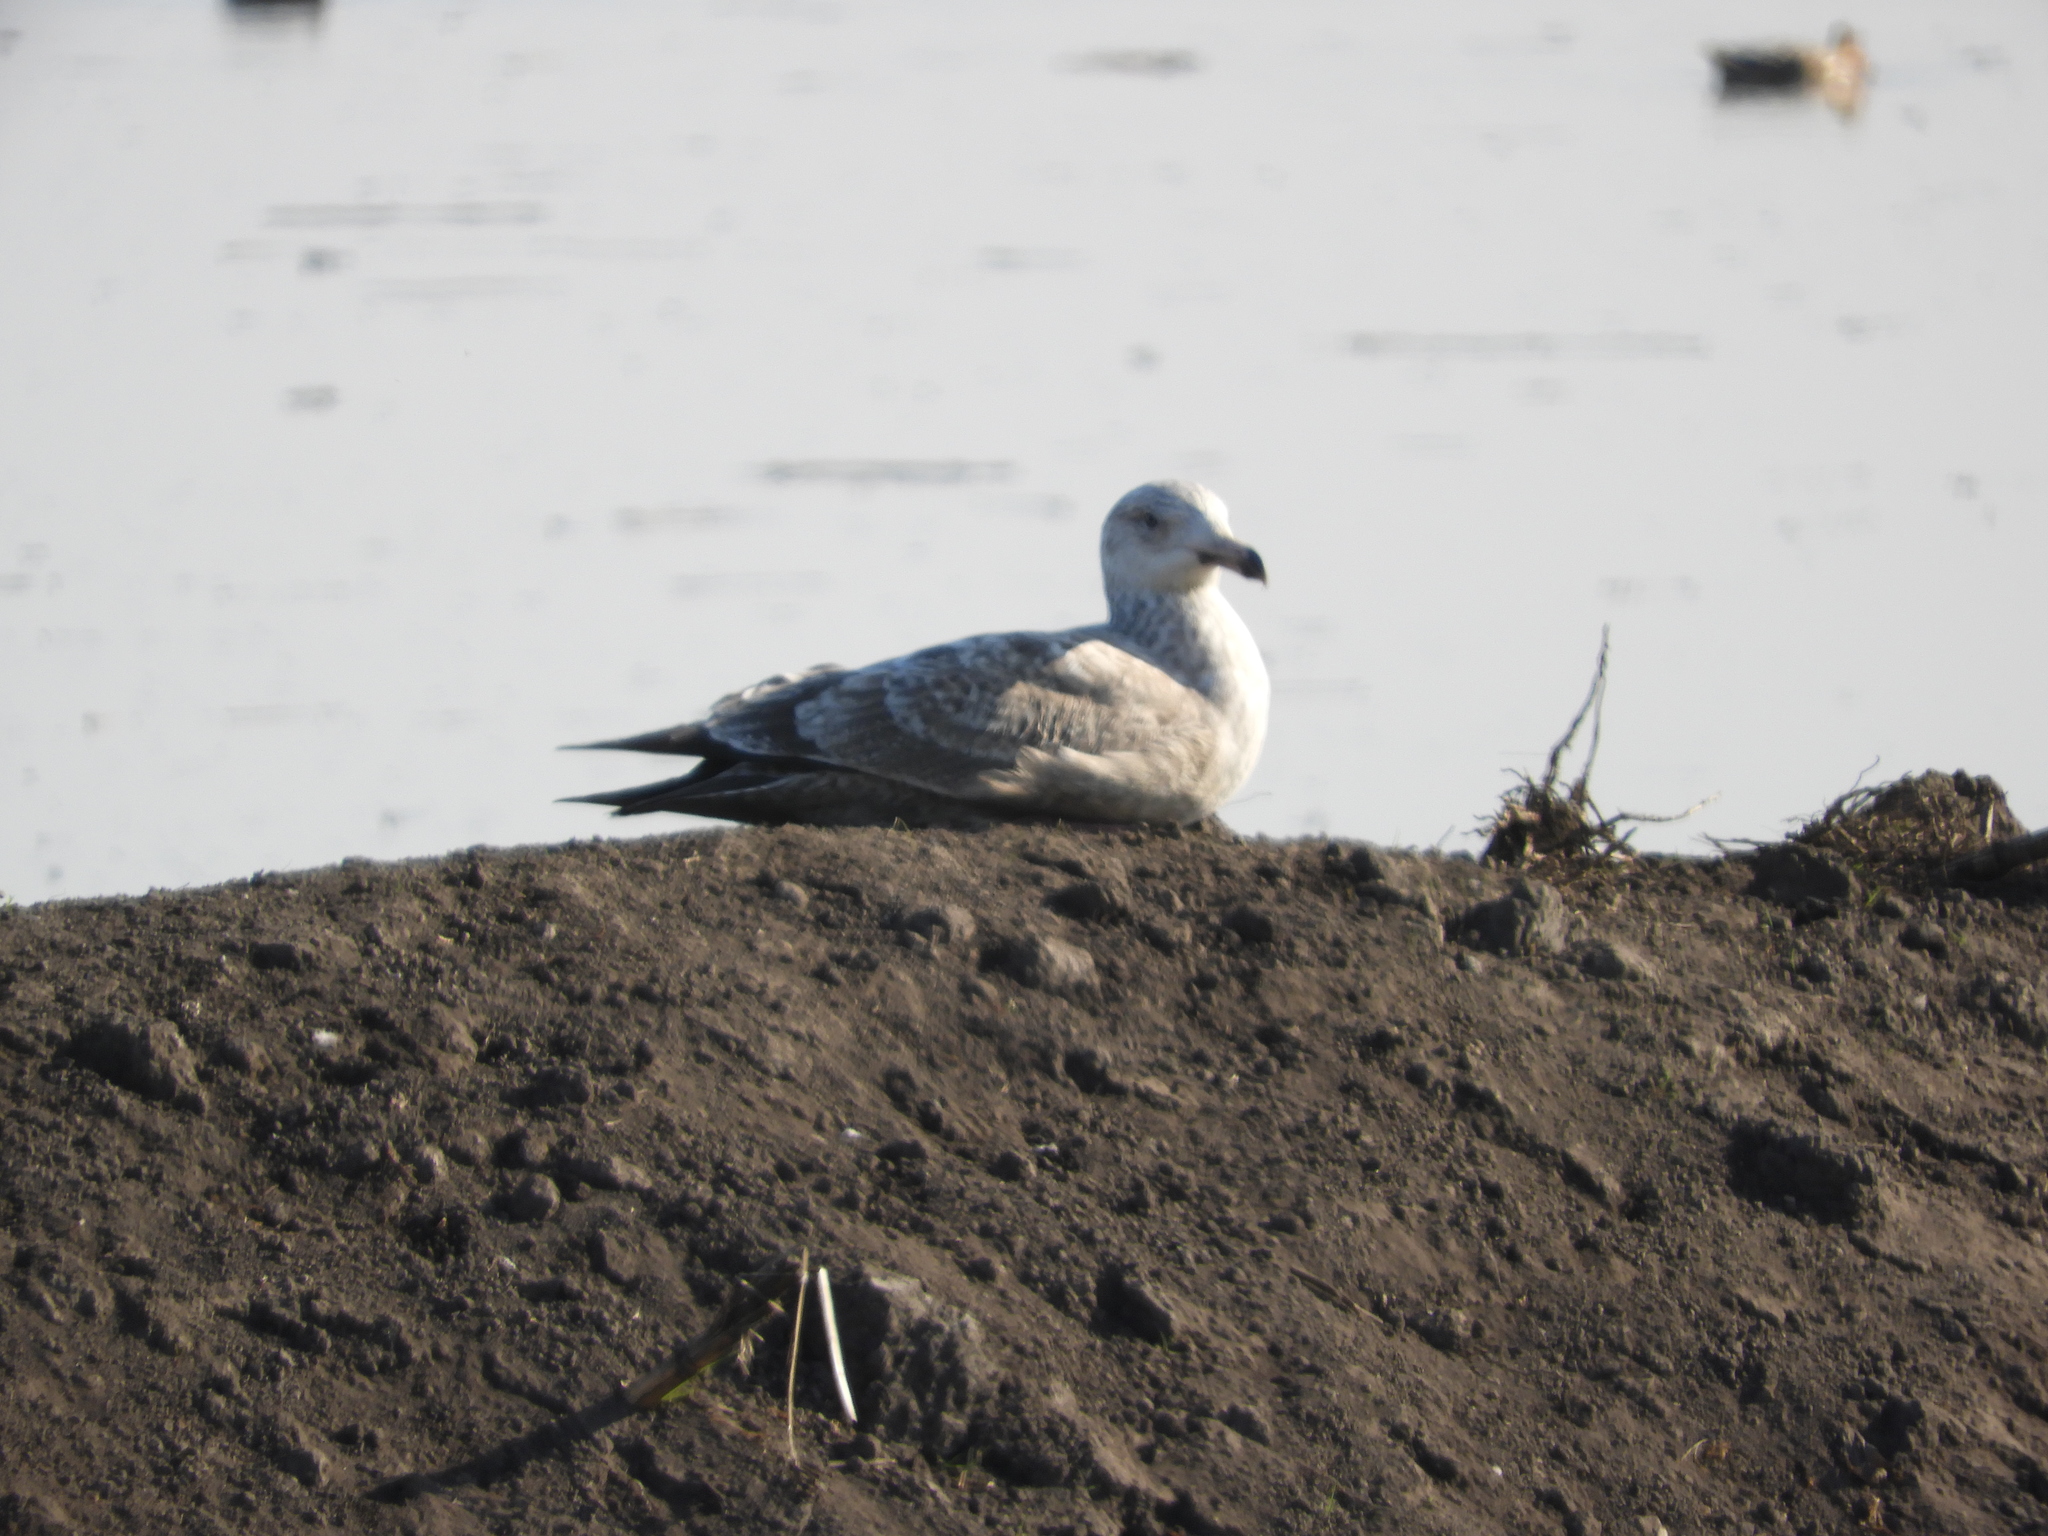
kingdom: Animalia
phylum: Chordata
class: Aves
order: Charadriiformes
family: Laridae
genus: Larus
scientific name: Larus argentatus
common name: Herring gull
